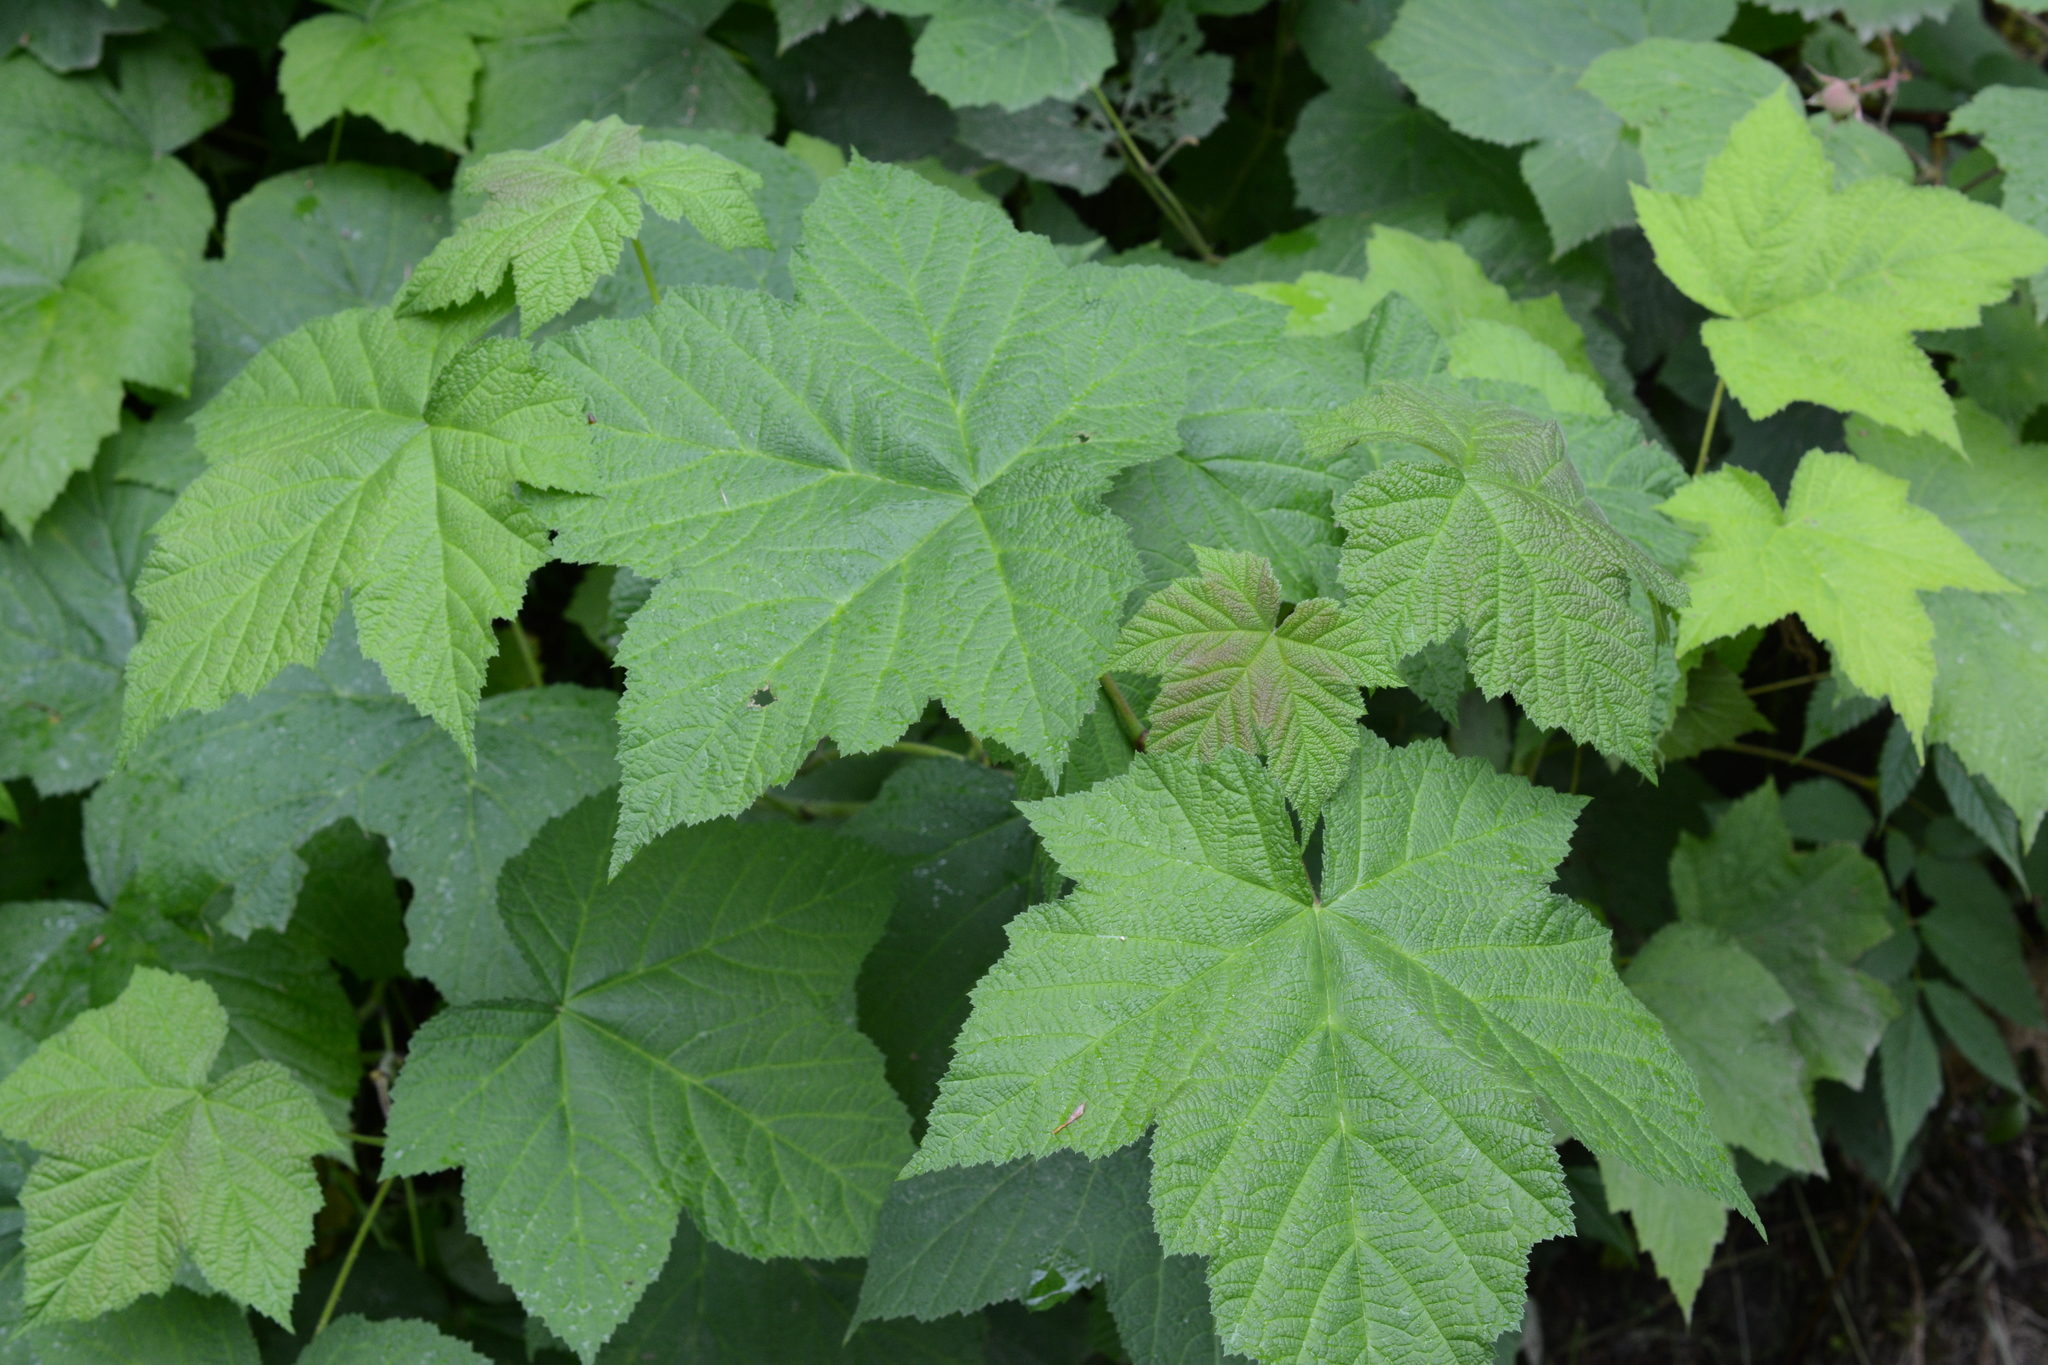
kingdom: Plantae
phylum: Tracheophyta
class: Magnoliopsida
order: Rosales
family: Rosaceae
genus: Rubus
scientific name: Rubus parviflorus
